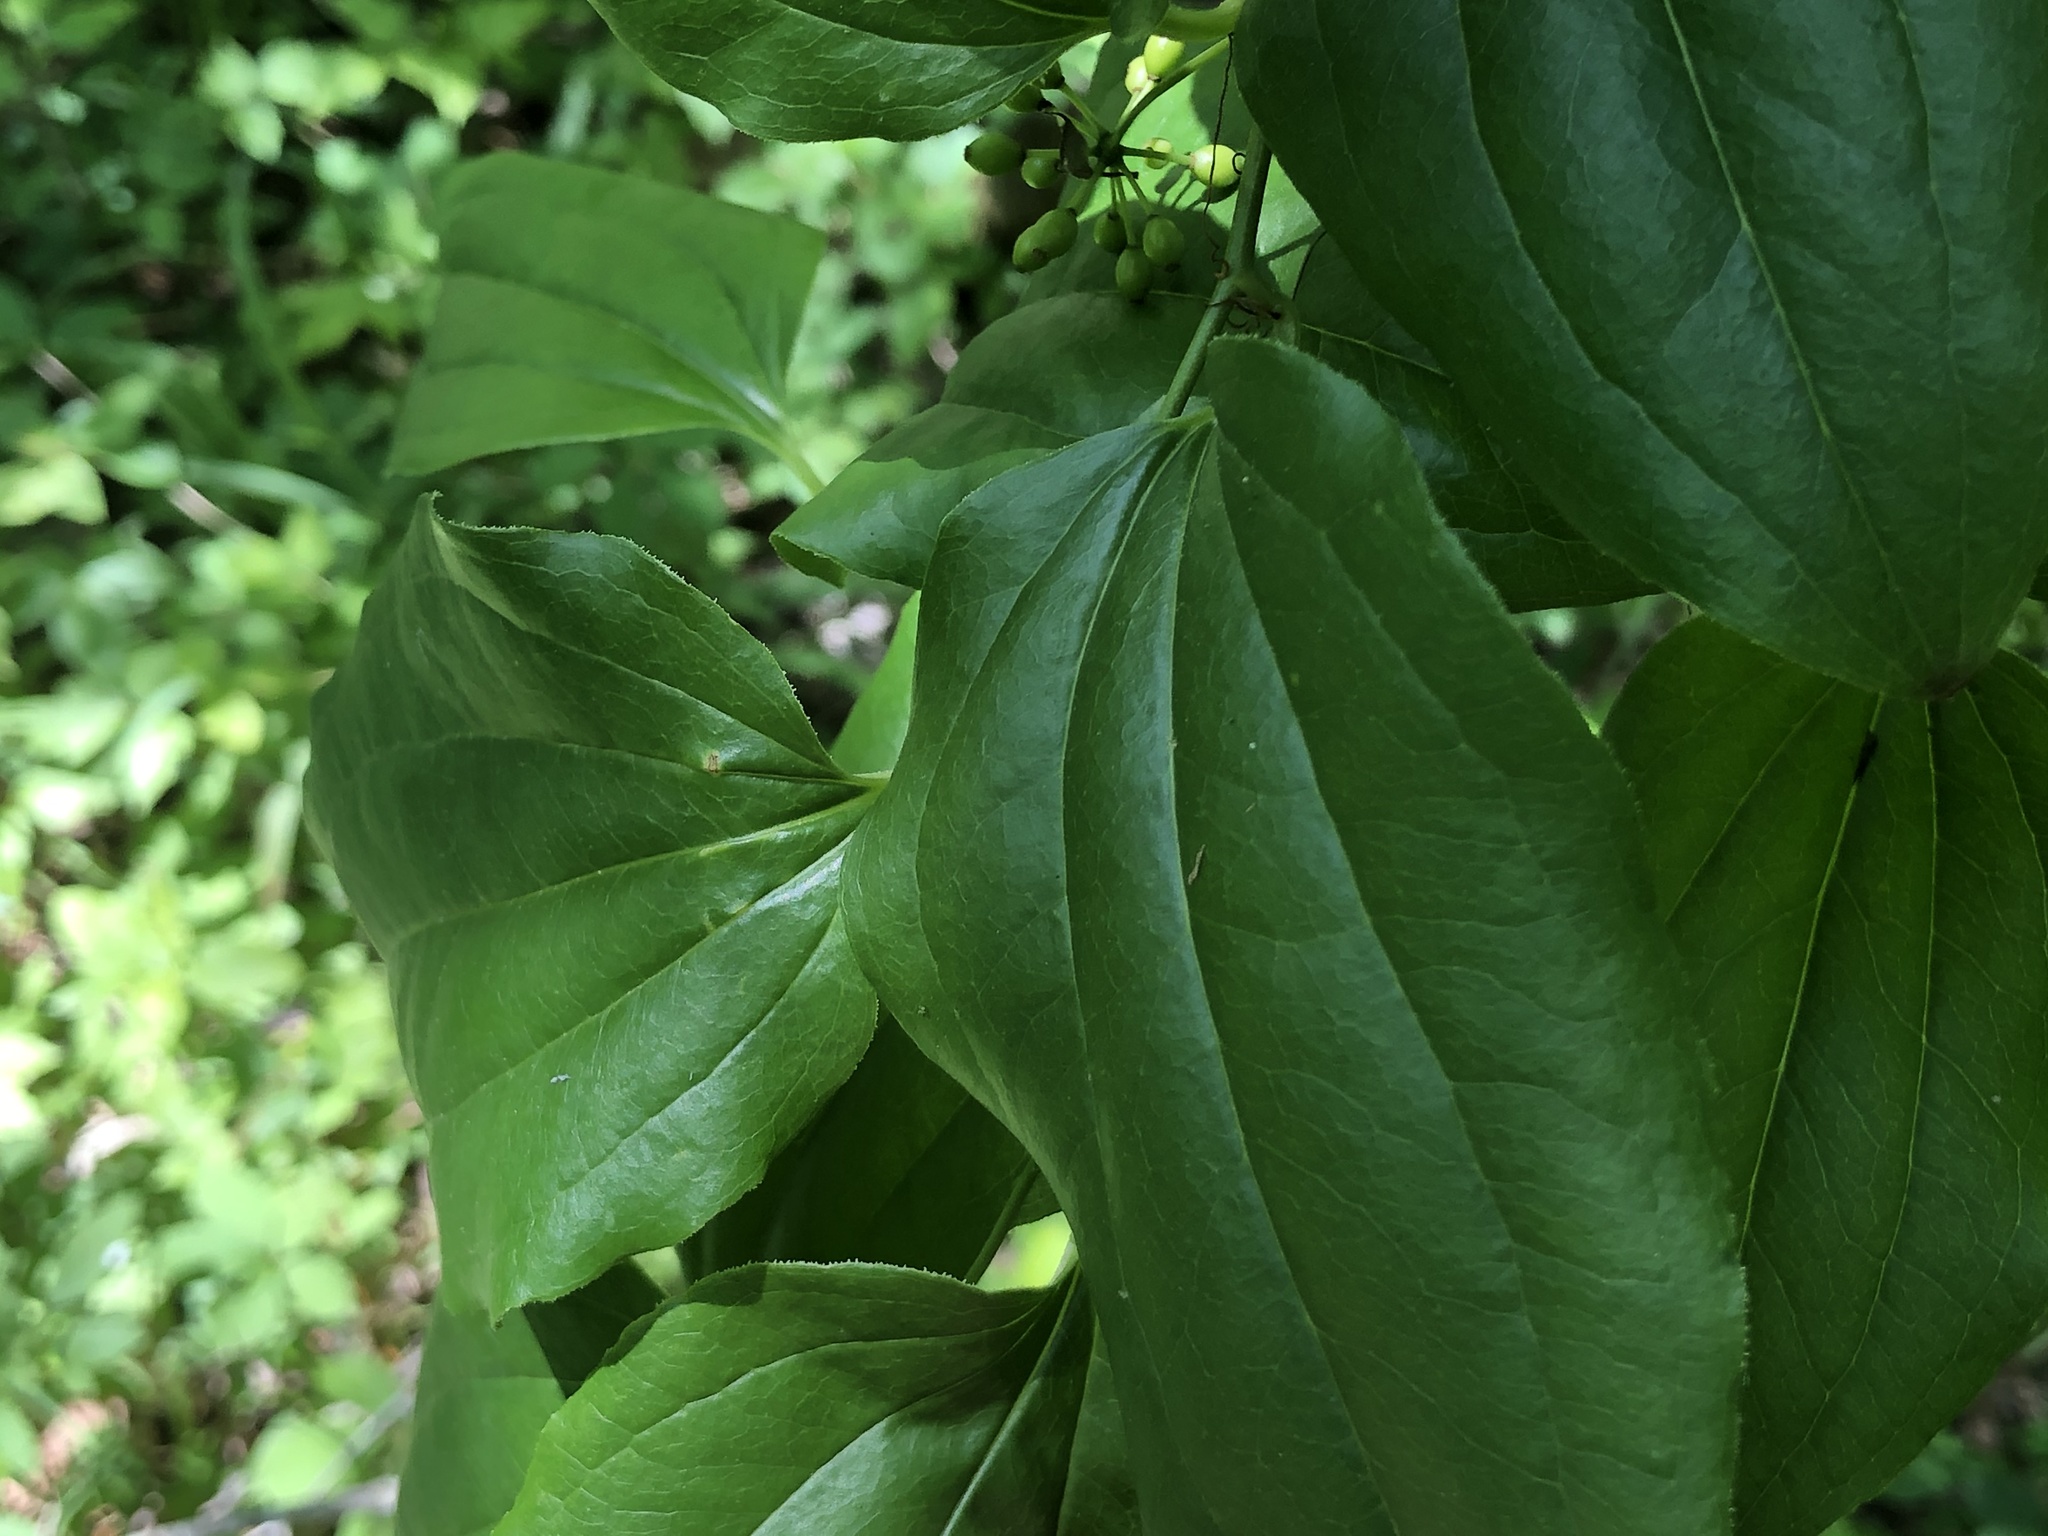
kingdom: Plantae
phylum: Tracheophyta
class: Liliopsida
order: Liliales
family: Smilacaceae
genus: Smilax
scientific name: Smilax tamnoides
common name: Hellfetter
